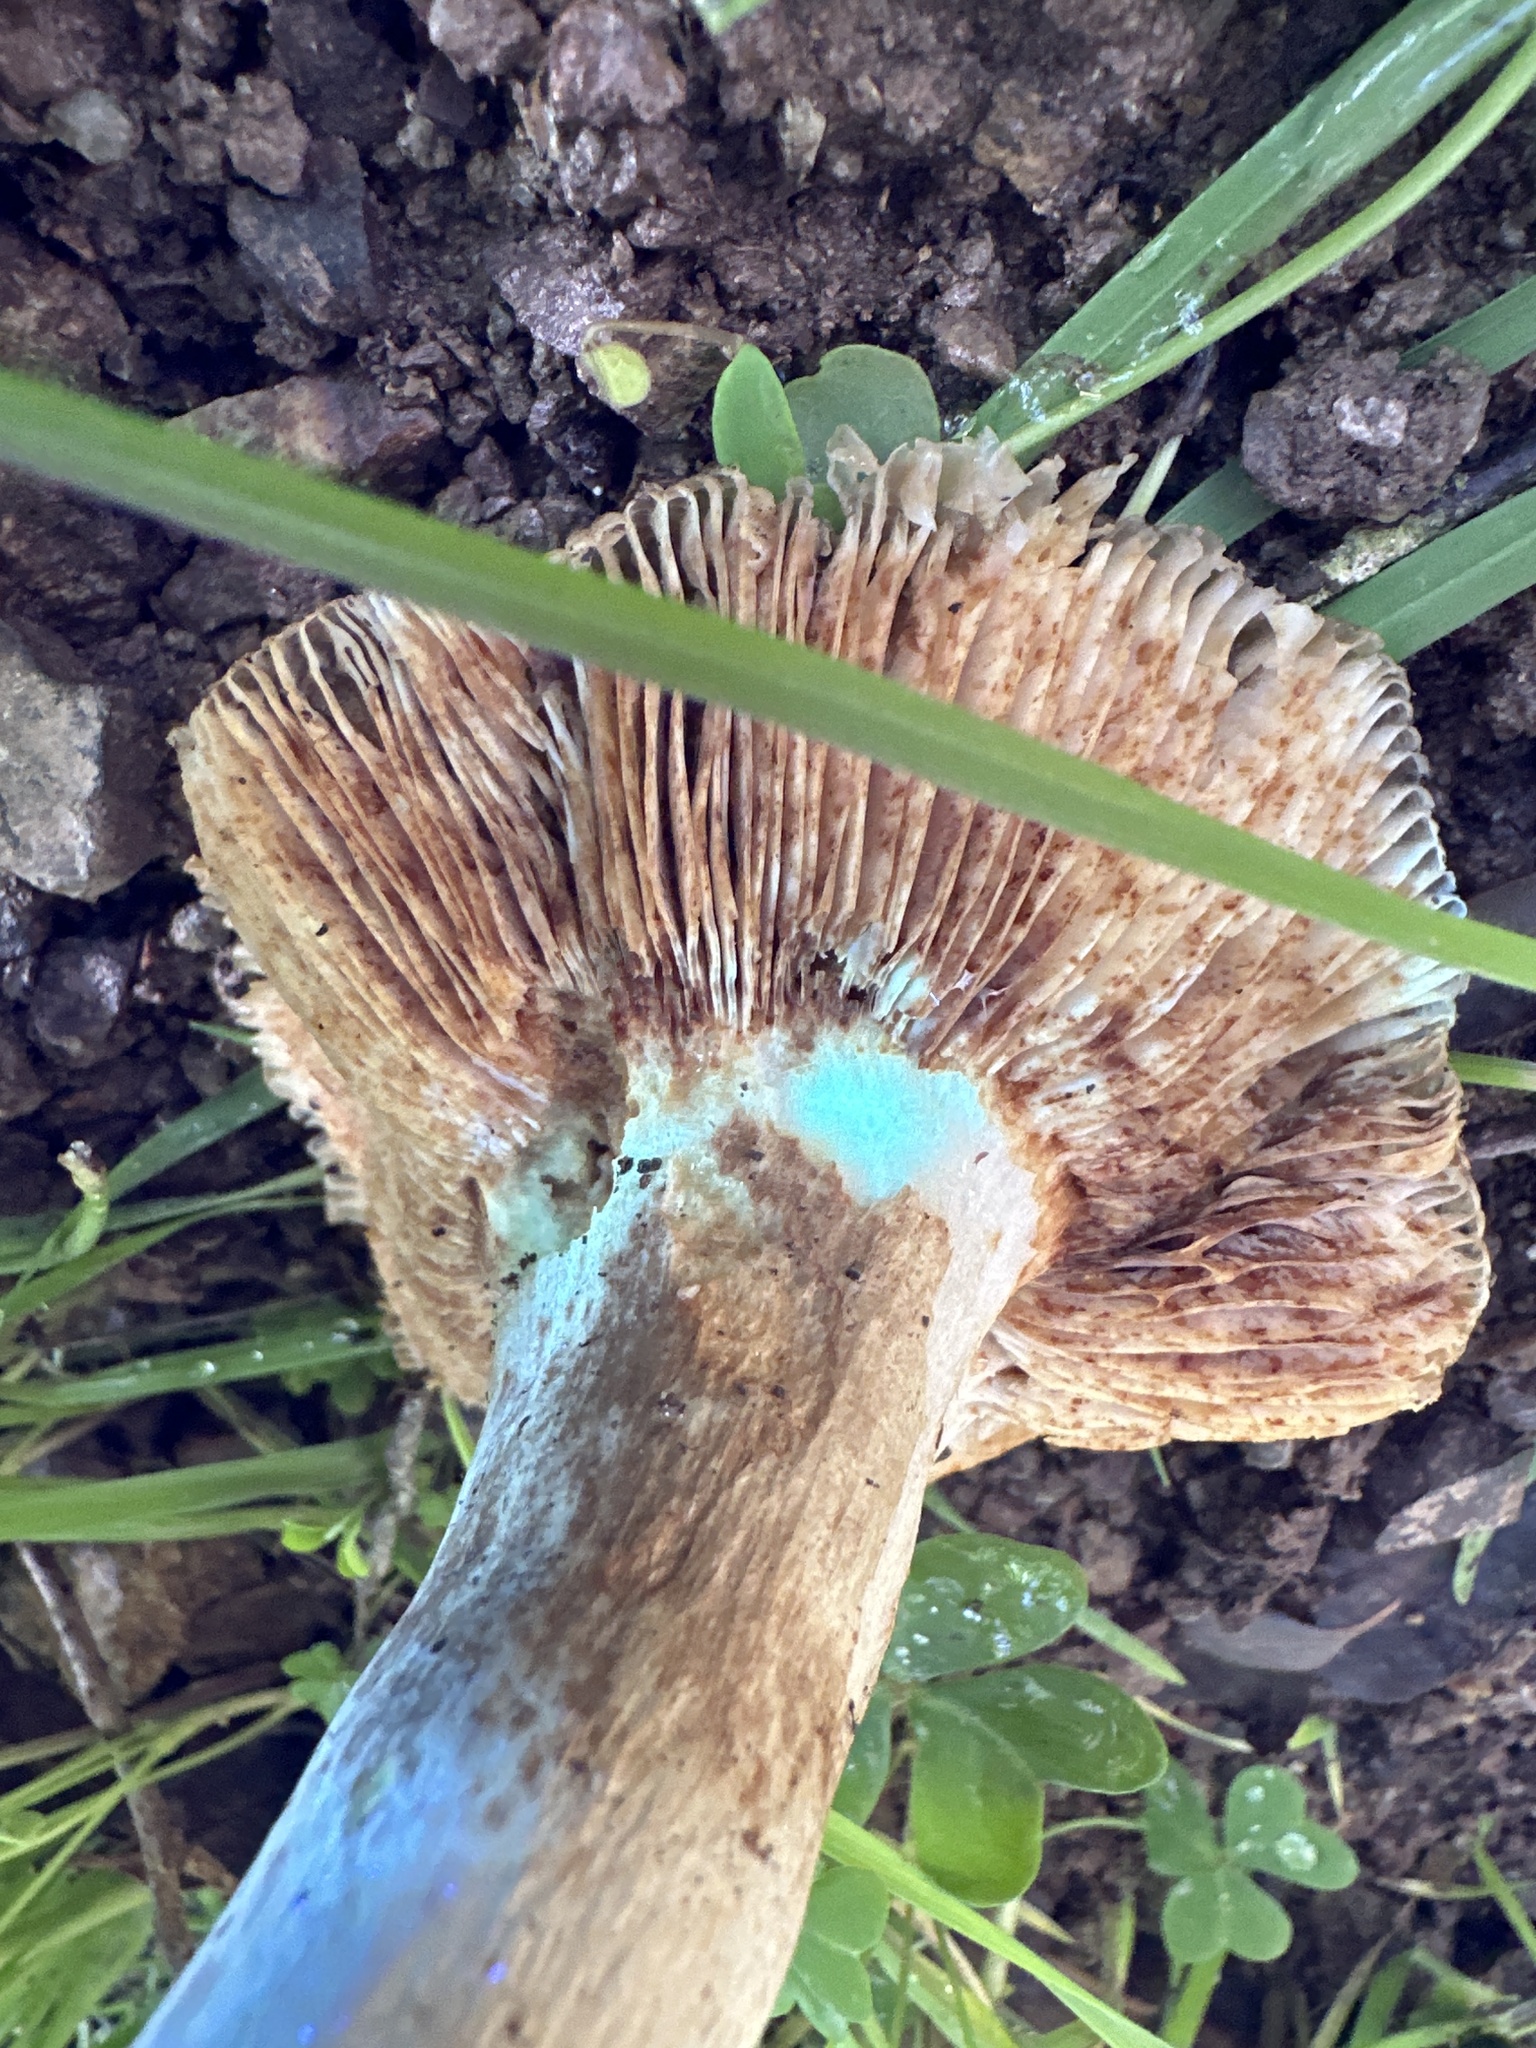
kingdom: Fungi
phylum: Basidiomycota
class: Agaricomycetes
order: Russulales
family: Russulaceae
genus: Russula
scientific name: Russula cerolens
